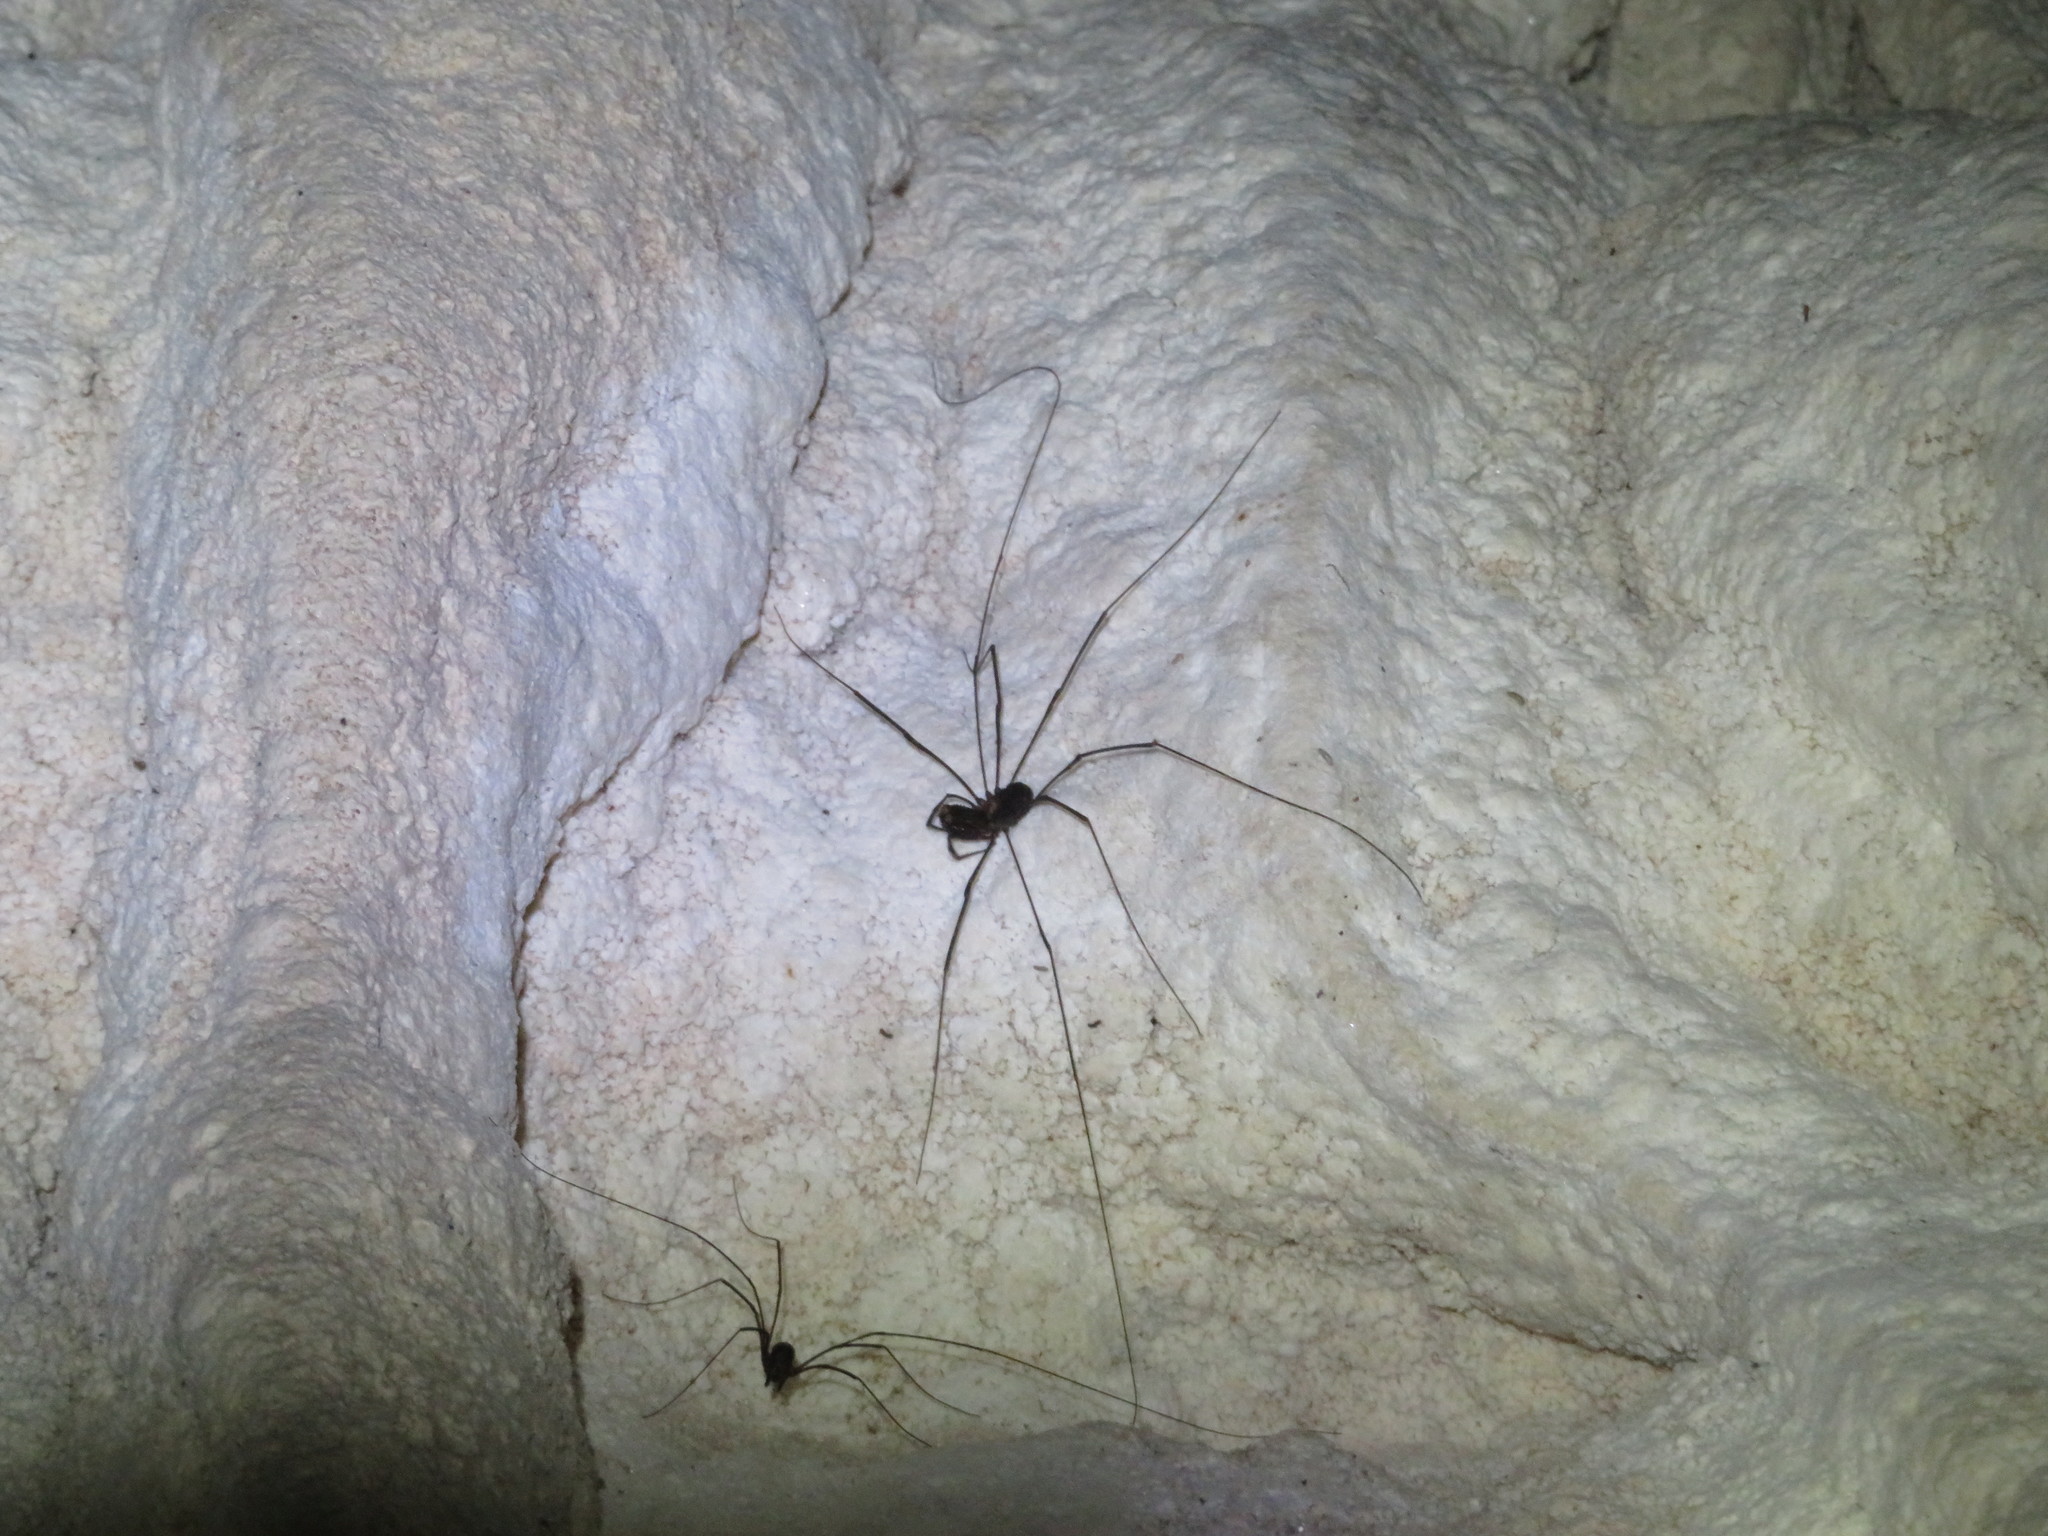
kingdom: Animalia
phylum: Arthropoda
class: Arachnida
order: Opiliones
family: Neopilionidae
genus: Forsteropsalis
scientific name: Forsteropsalis photophaga
